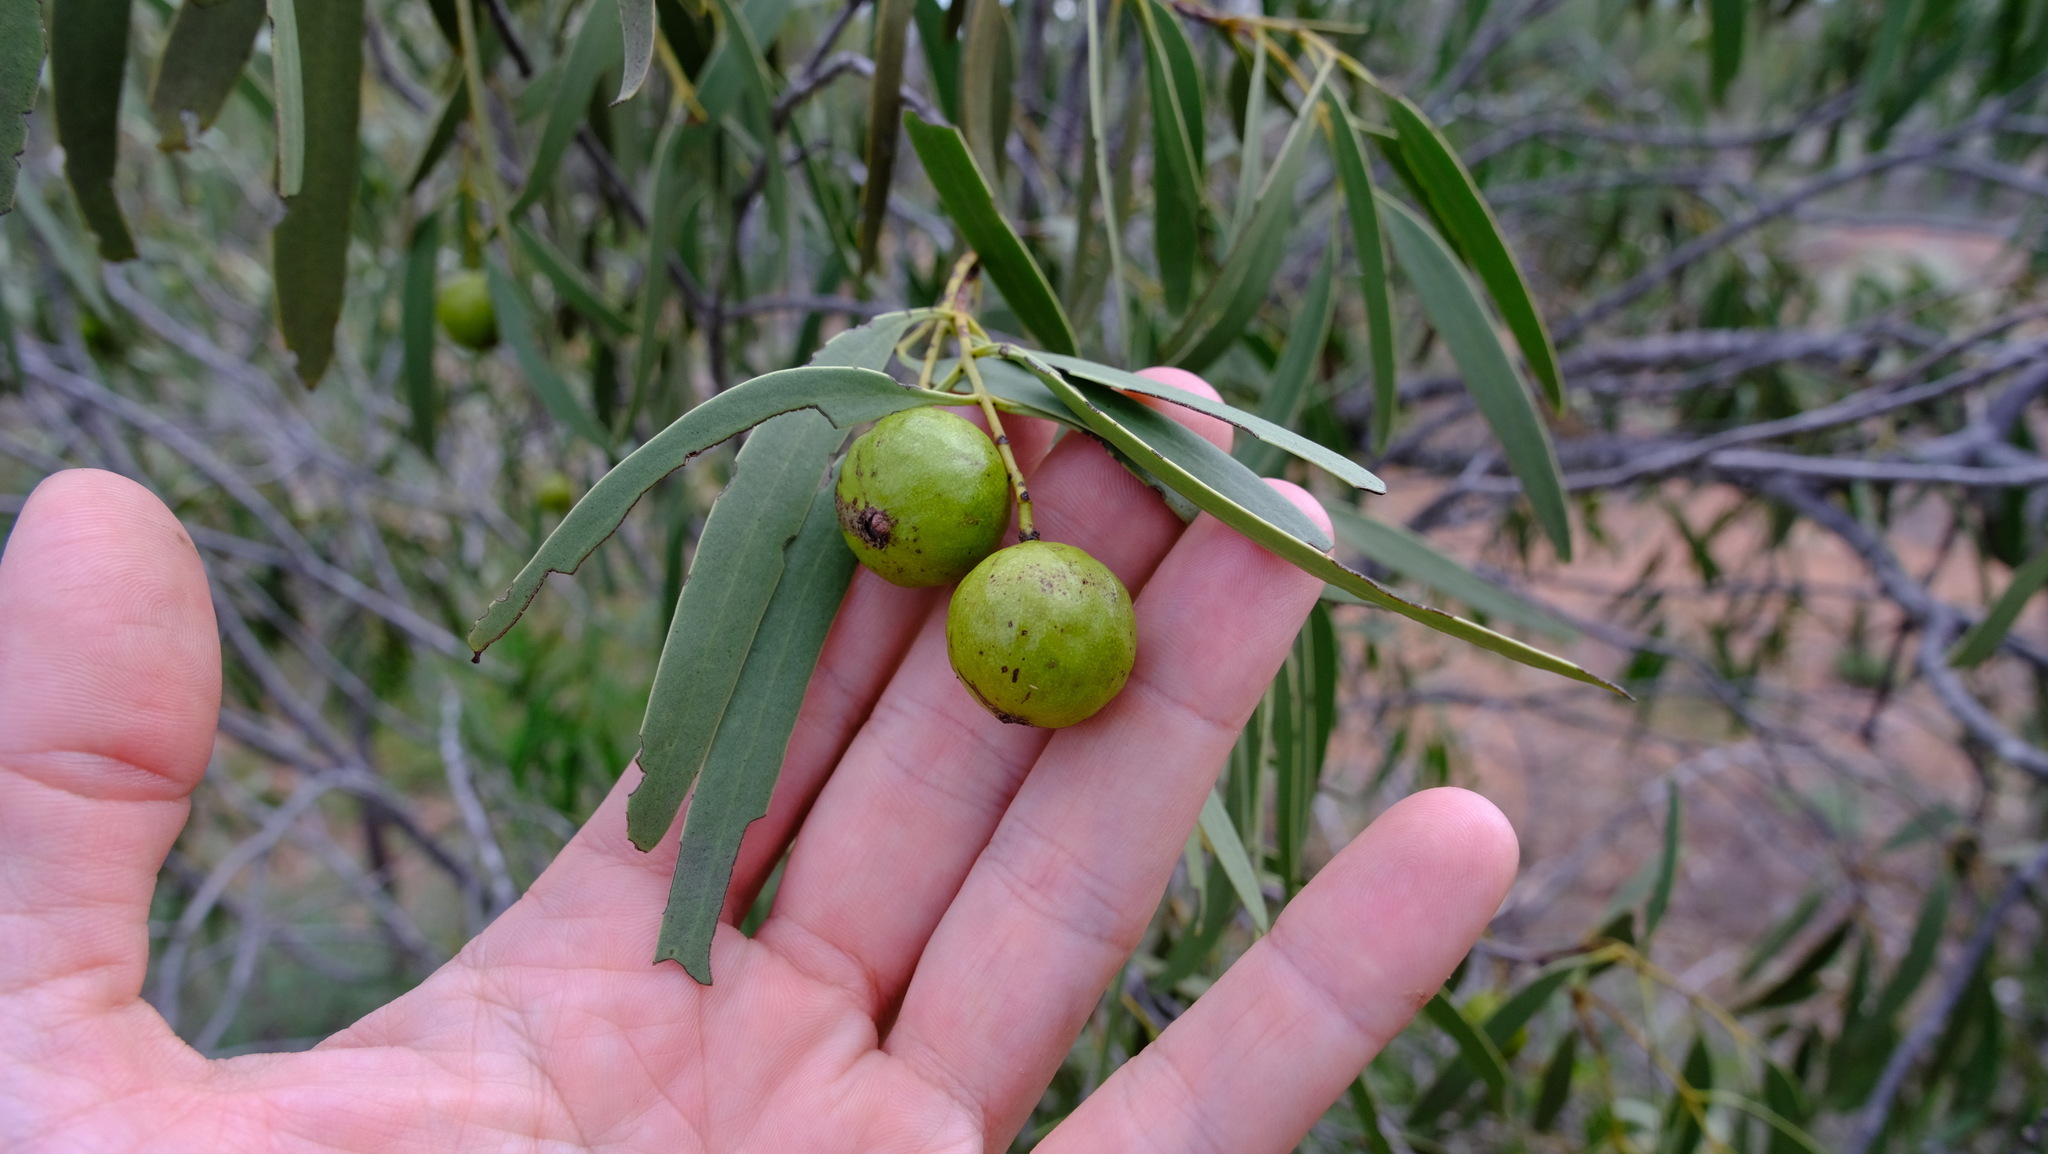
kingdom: Plantae
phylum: Tracheophyta
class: Magnoliopsida
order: Santalales
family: Santalaceae
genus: Santalum
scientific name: Santalum spicatum
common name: West australian sandalwood
